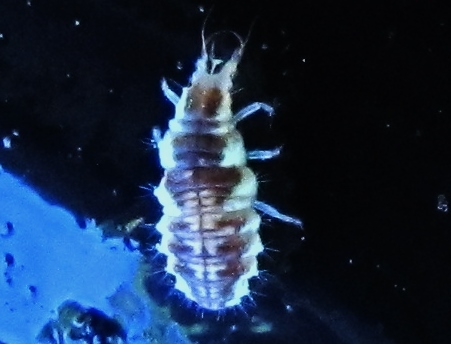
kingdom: Animalia
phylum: Arthropoda
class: Insecta
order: Neuroptera
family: Chrysopidae
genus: Chrysoperla
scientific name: Chrysoperla
